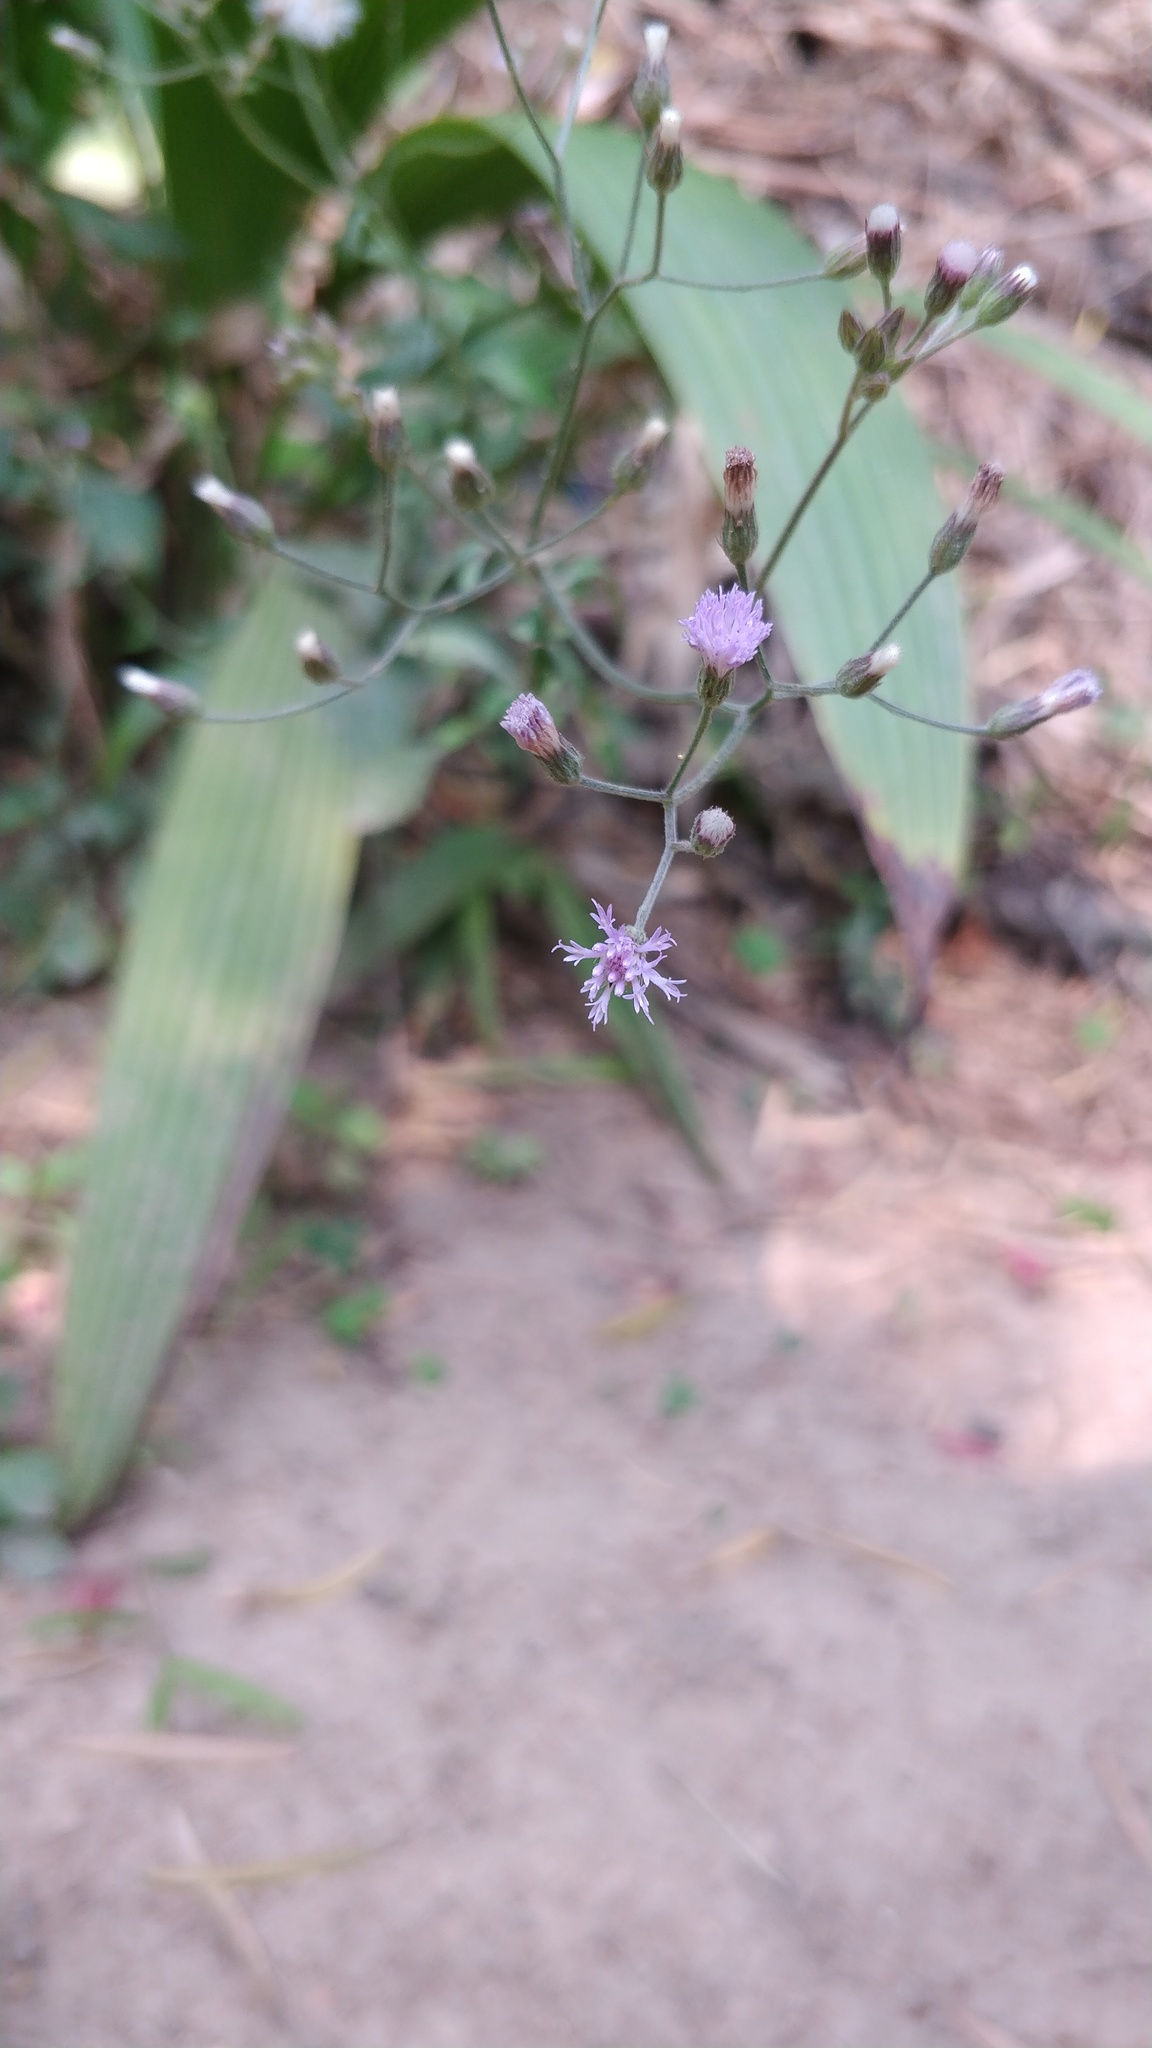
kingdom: Plantae
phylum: Tracheophyta
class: Magnoliopsida
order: Asterales
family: Asteraceae
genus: Cyanthillium
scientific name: Cyanthillium cinereum
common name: Little ironweed
